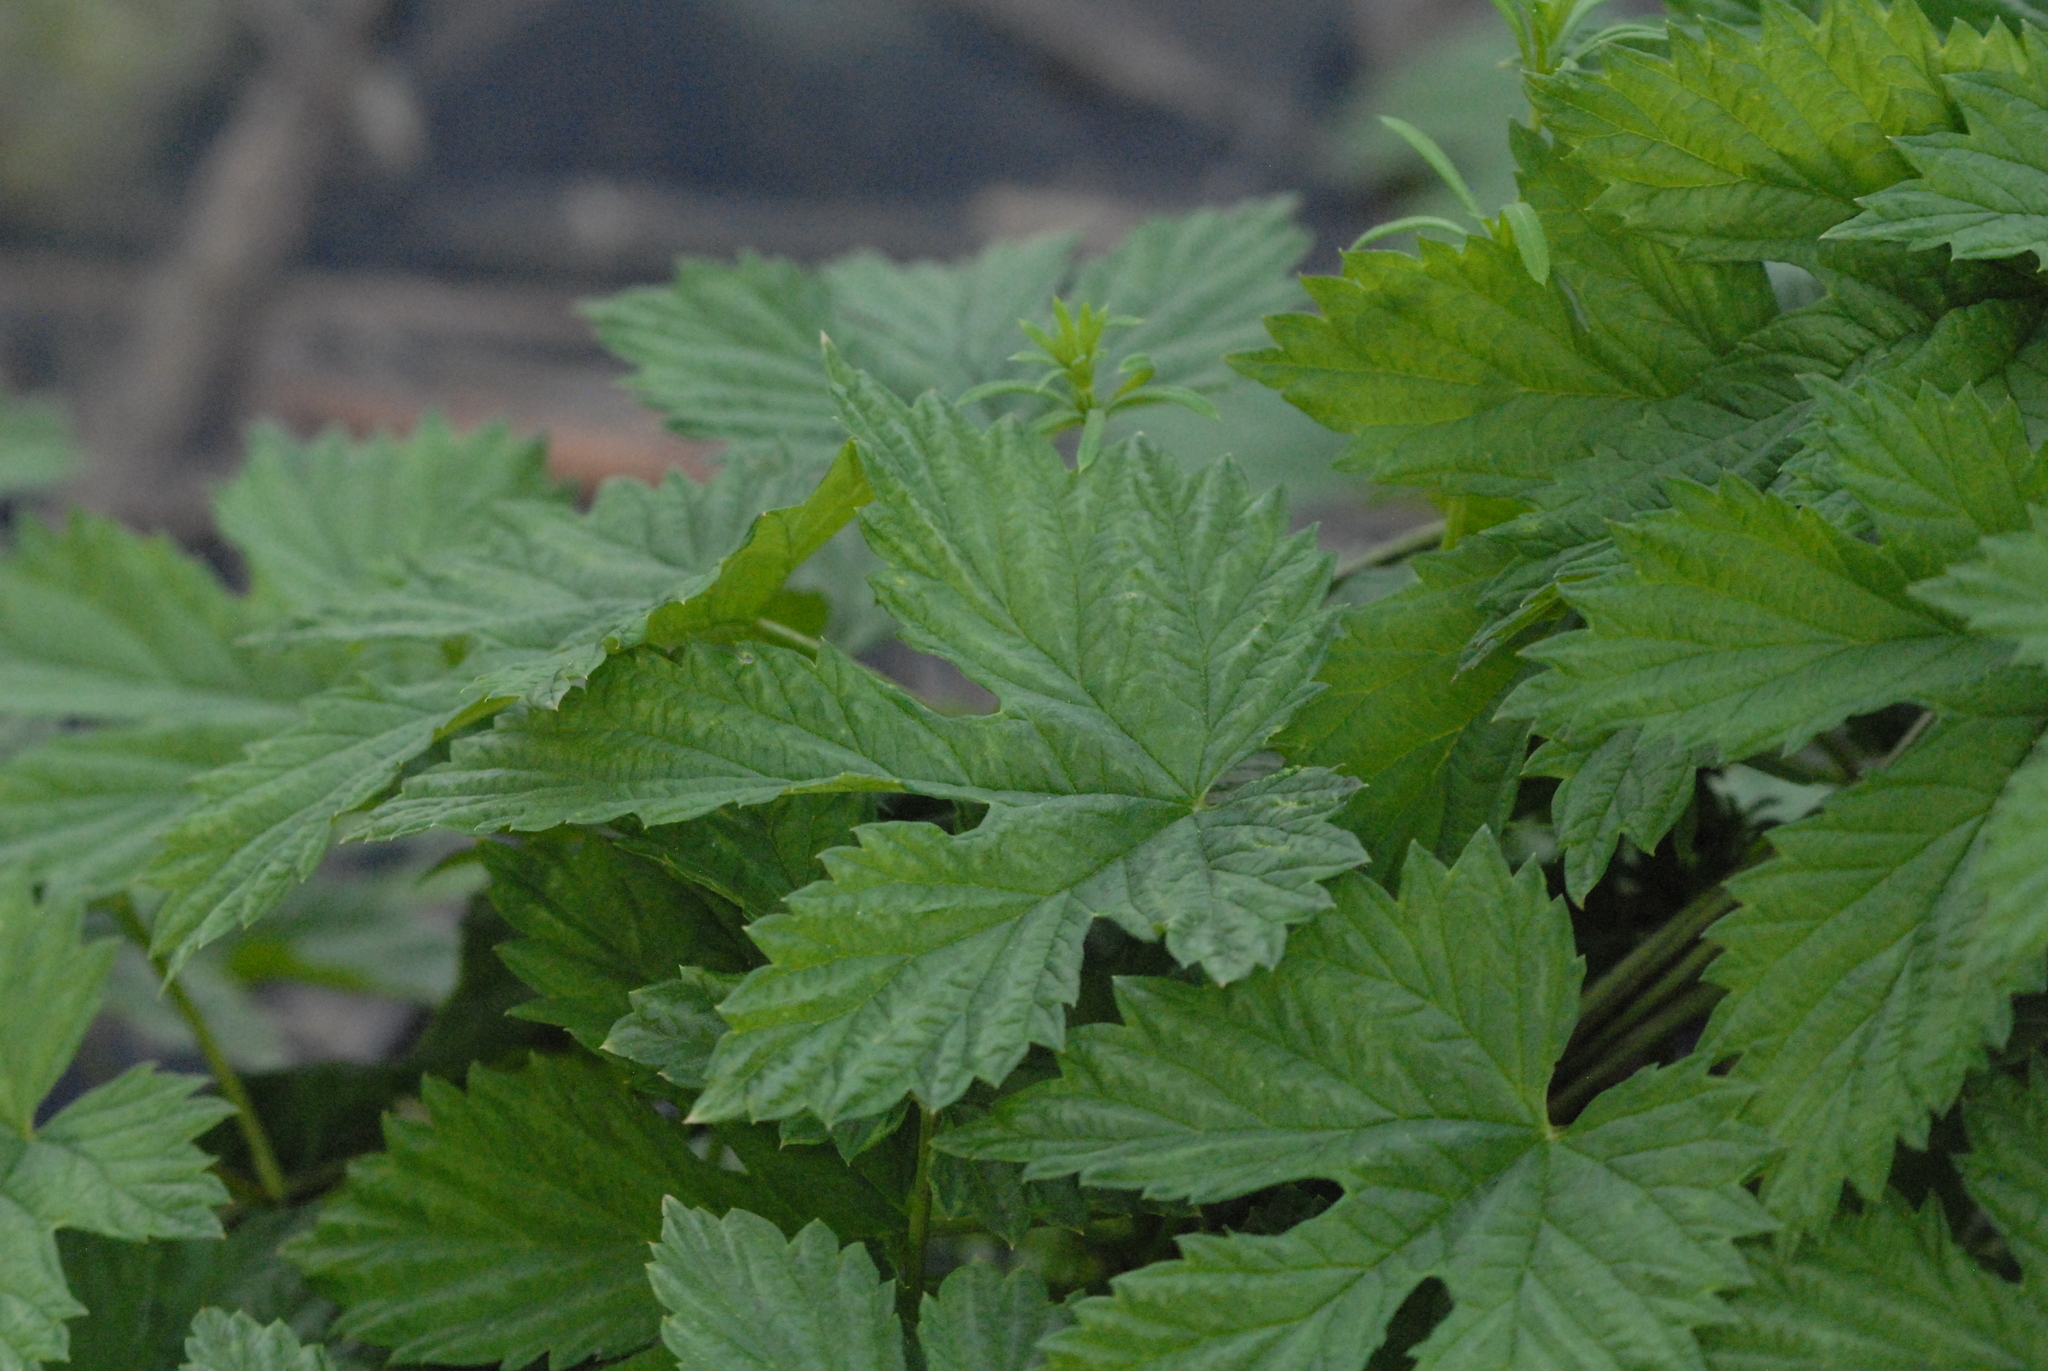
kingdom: Plantae
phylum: Tracheophyta
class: Magnoliopsida
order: Rosales
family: Cannabaceae
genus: Humulus
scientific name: Humulus lupulus
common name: Hop
